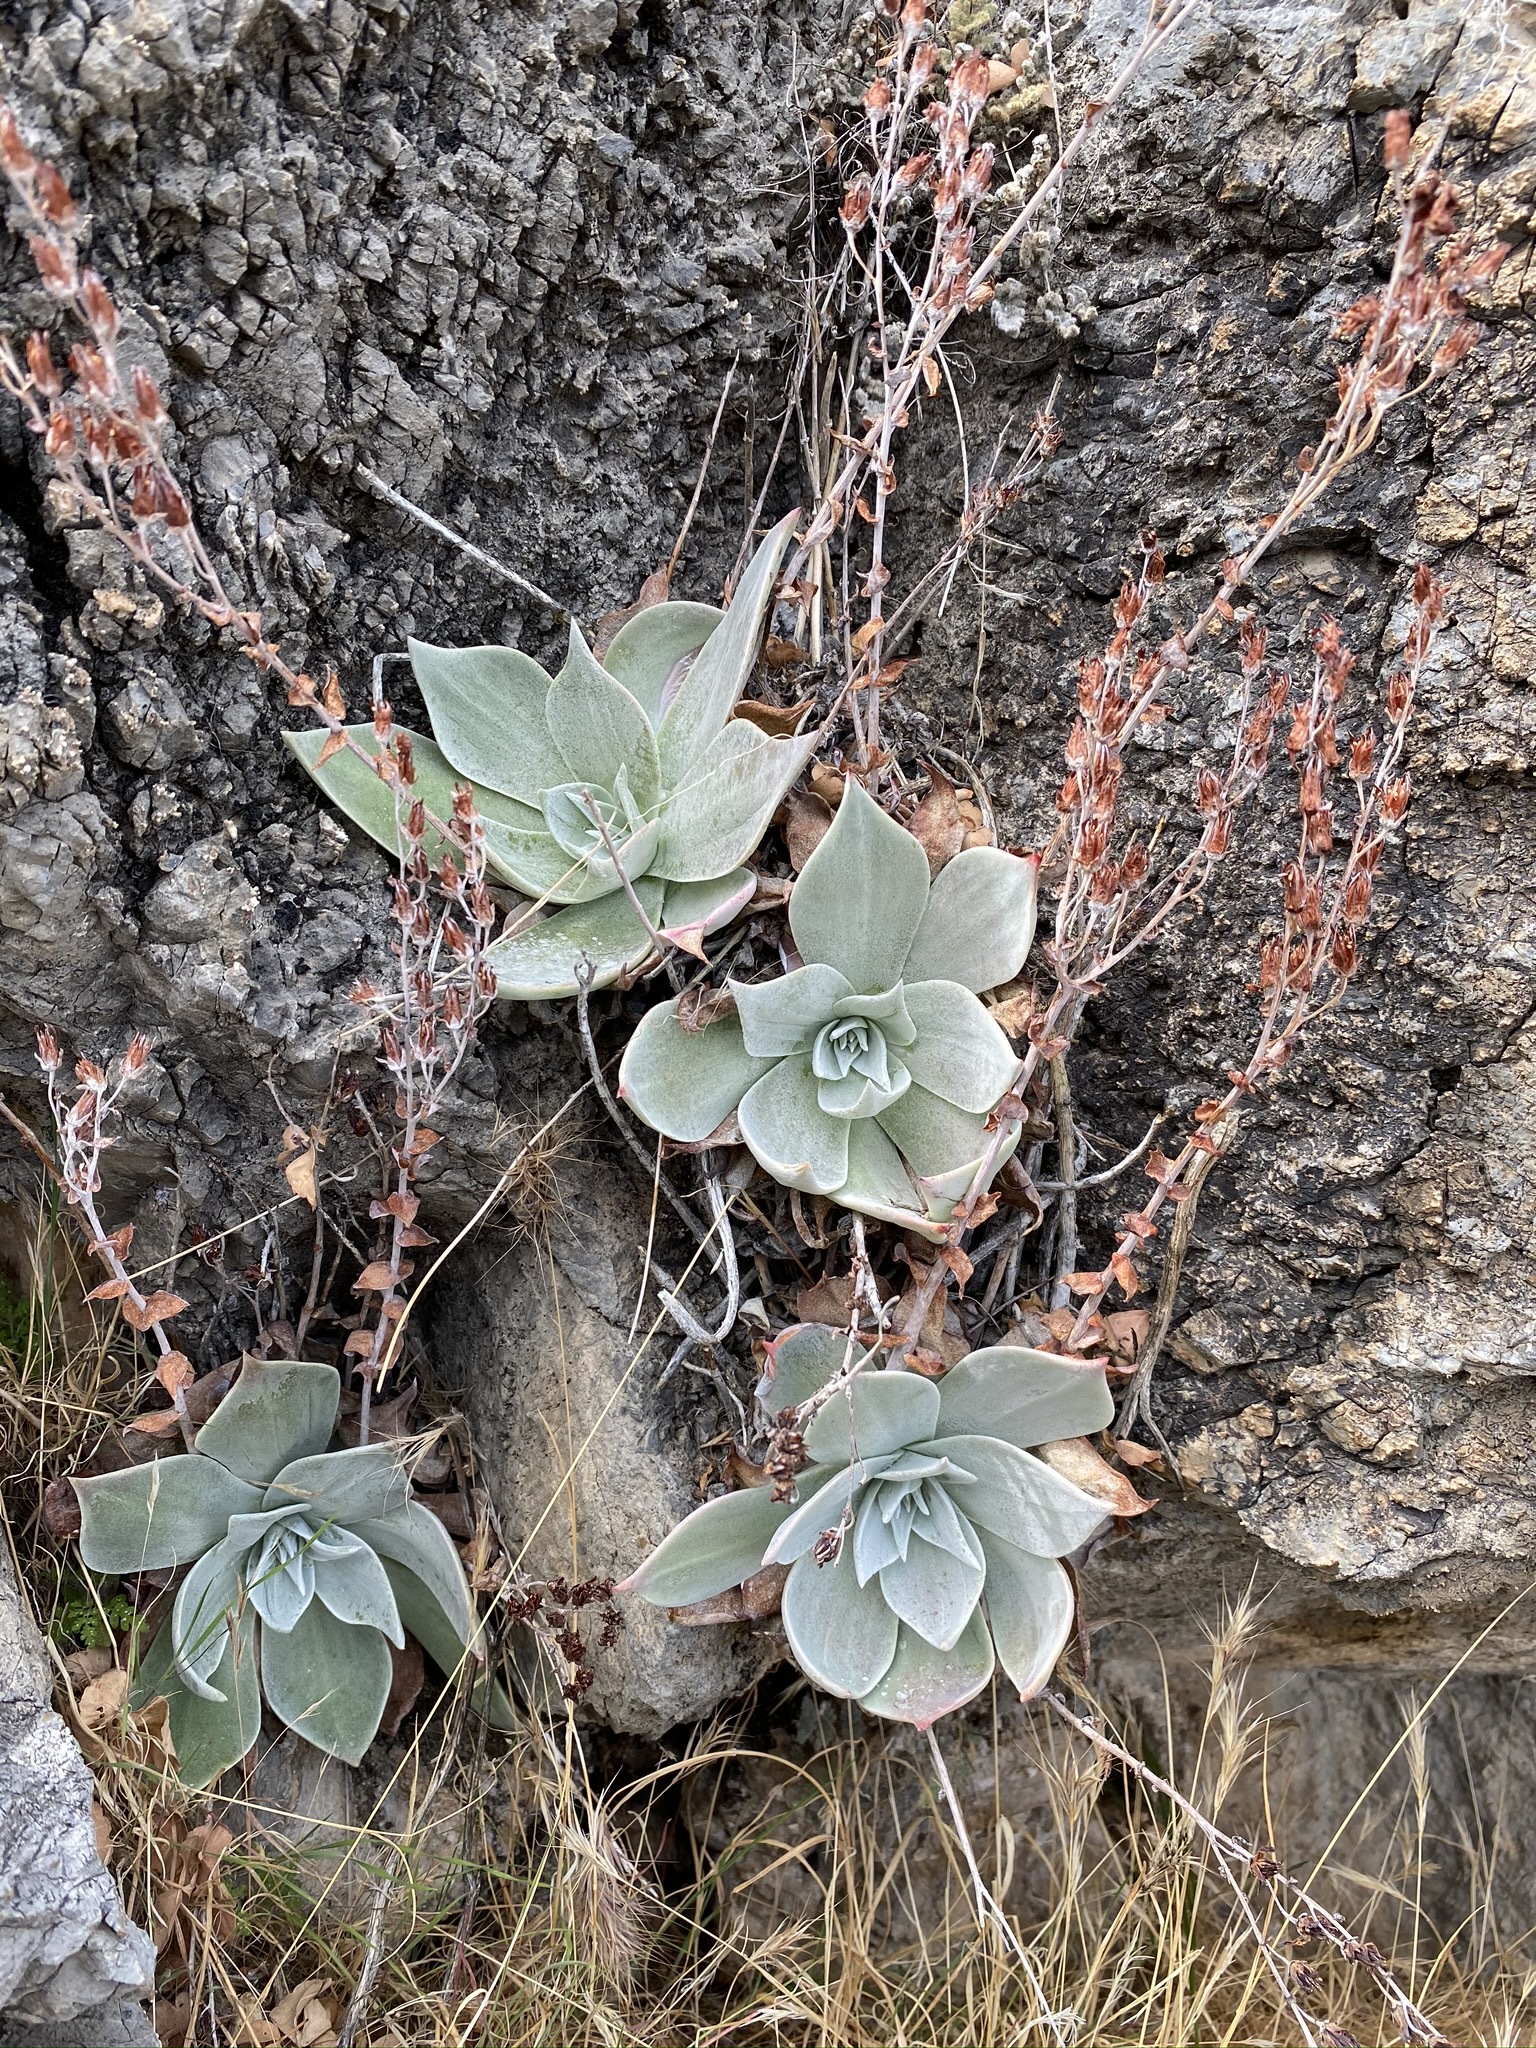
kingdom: Plantae
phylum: Tracheophyta
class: Magnoliopsida
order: Saxifragales
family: Crassulaceae
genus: Dudleya
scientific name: Dudleya arizonica
